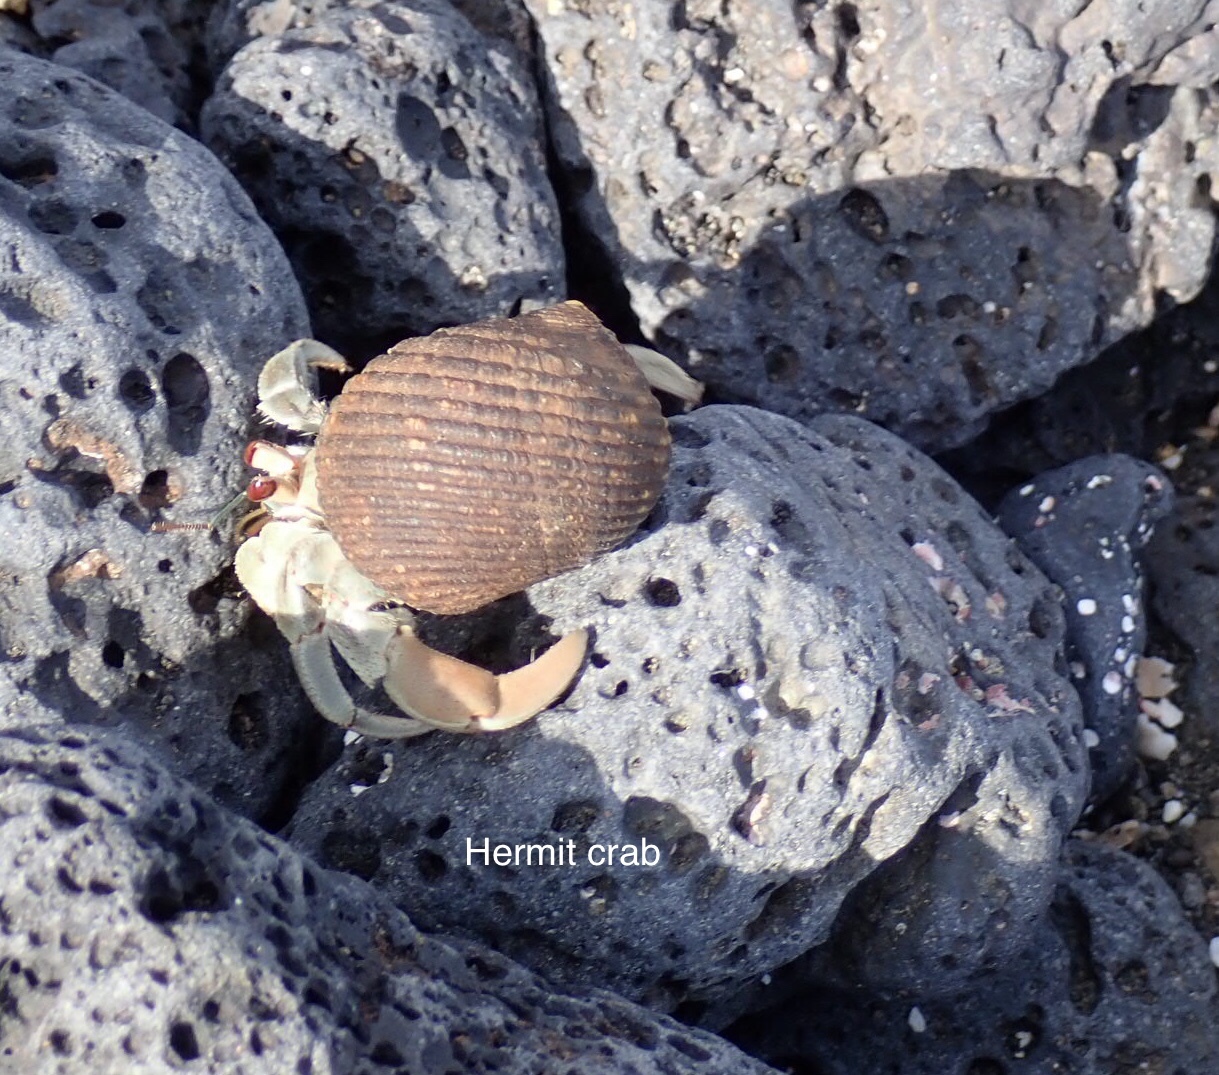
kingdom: Animalia
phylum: Arthropoda
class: Malacostraca
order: Decapoda
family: Coenobitidae
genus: Coenobita
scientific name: Coenobita compressus
